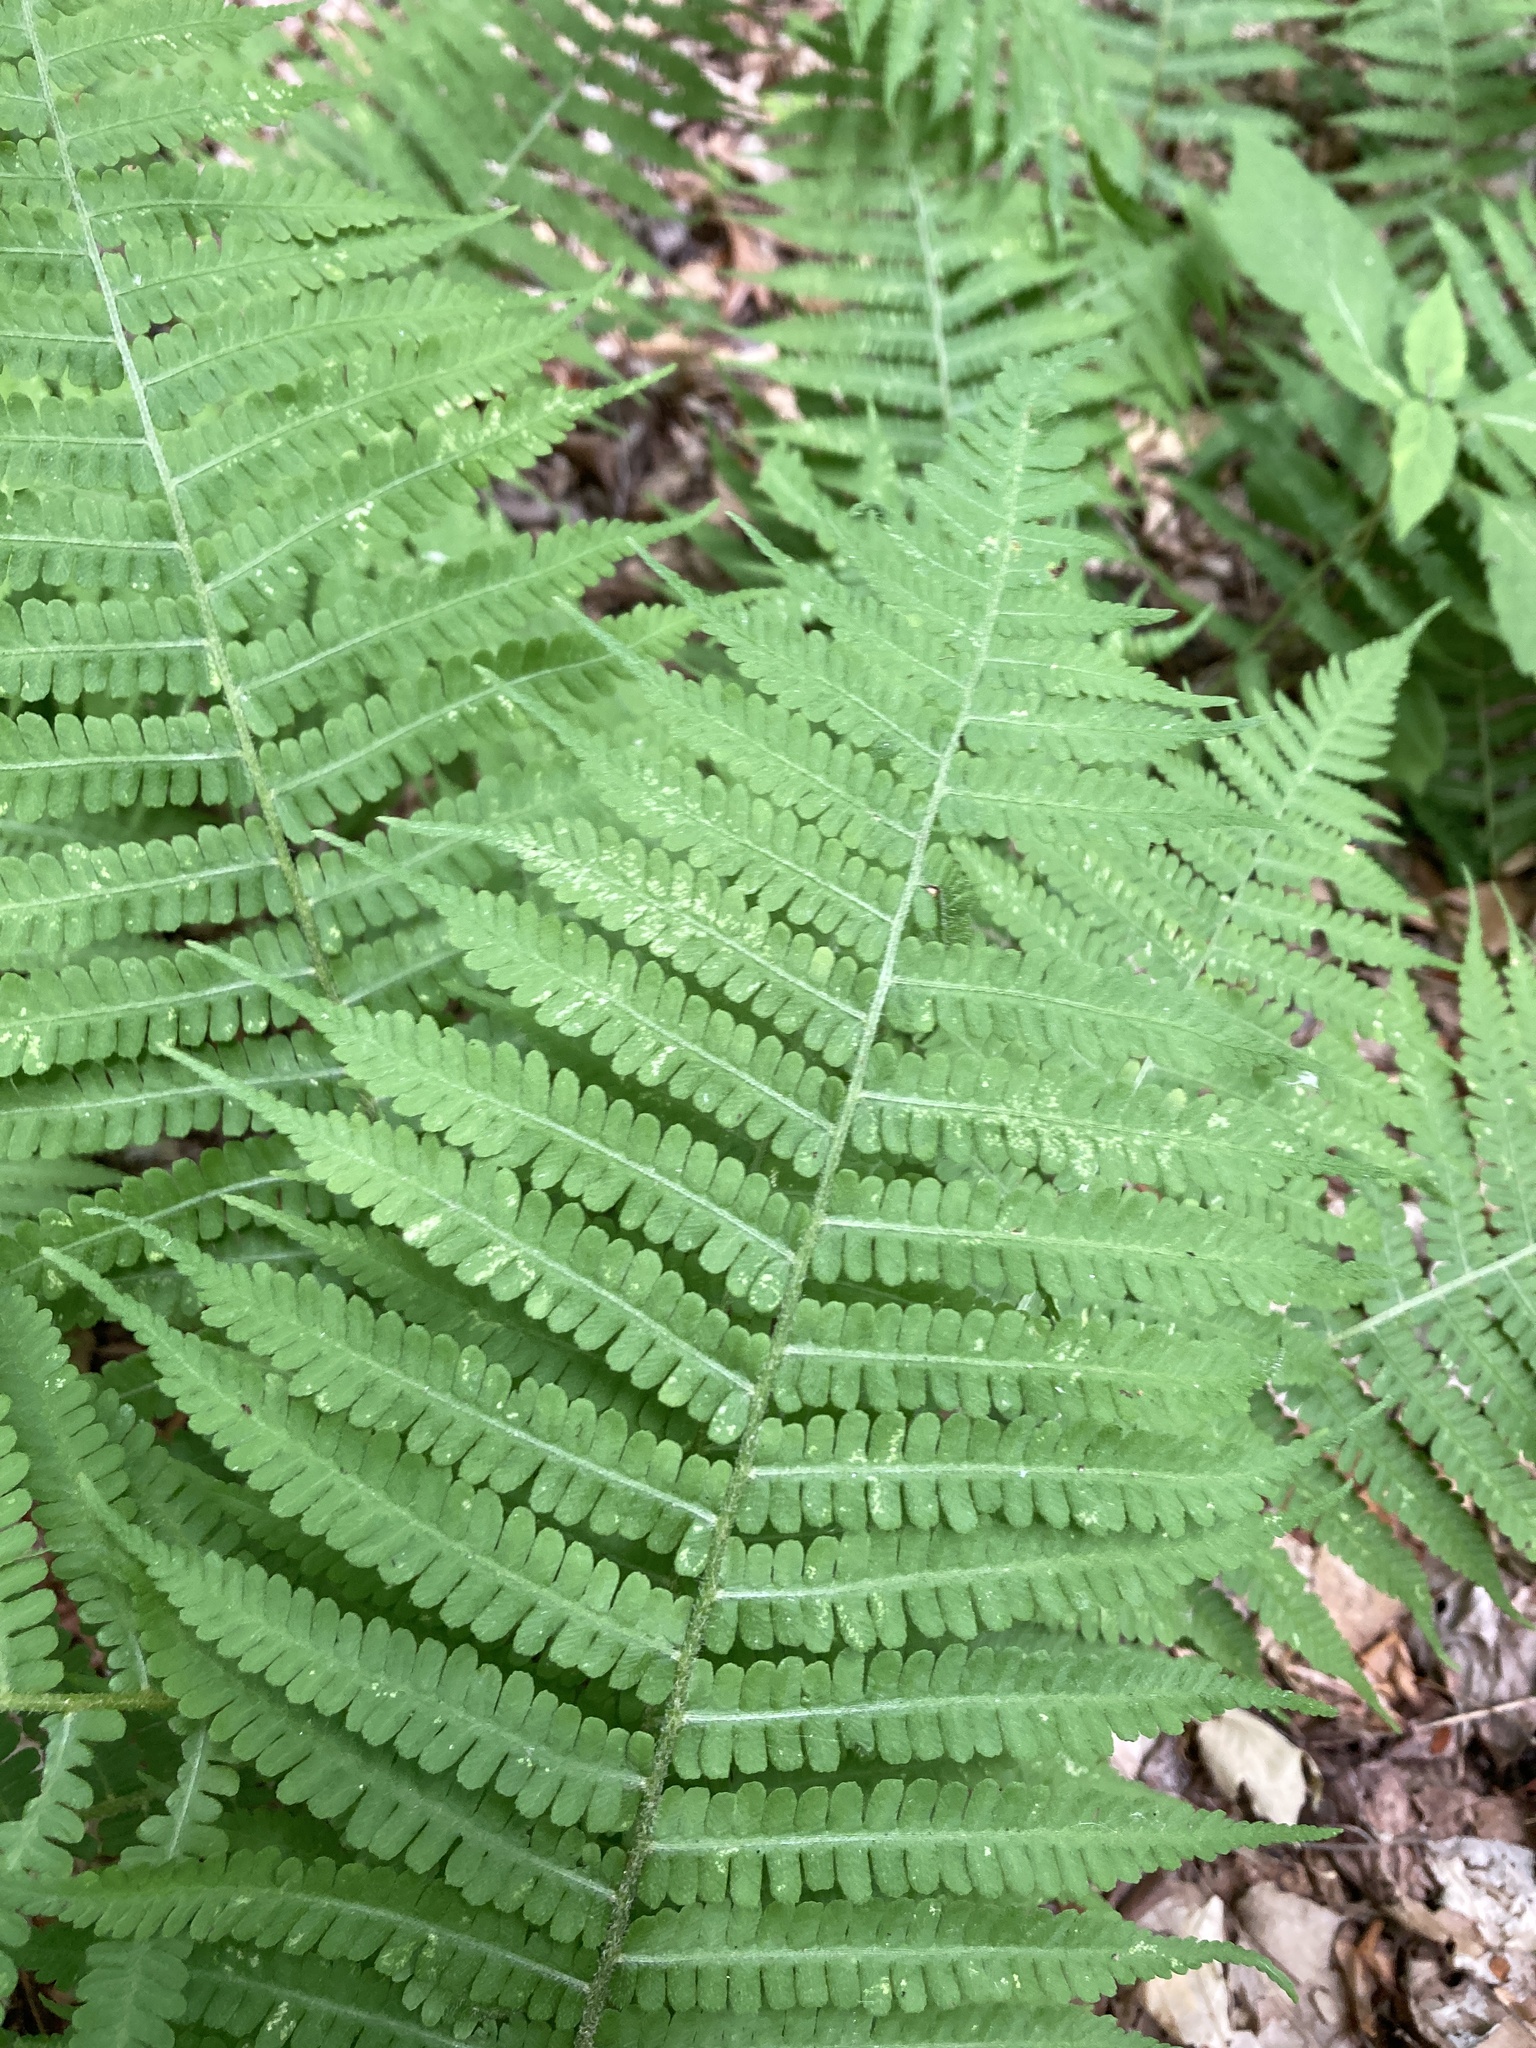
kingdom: Plantae
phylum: Tracheophyta
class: Polypodiopsida
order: Polypodiales
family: Athyriaceae
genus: Deparia
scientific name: Deparia acrostichoides
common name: Silver false spleenwort
